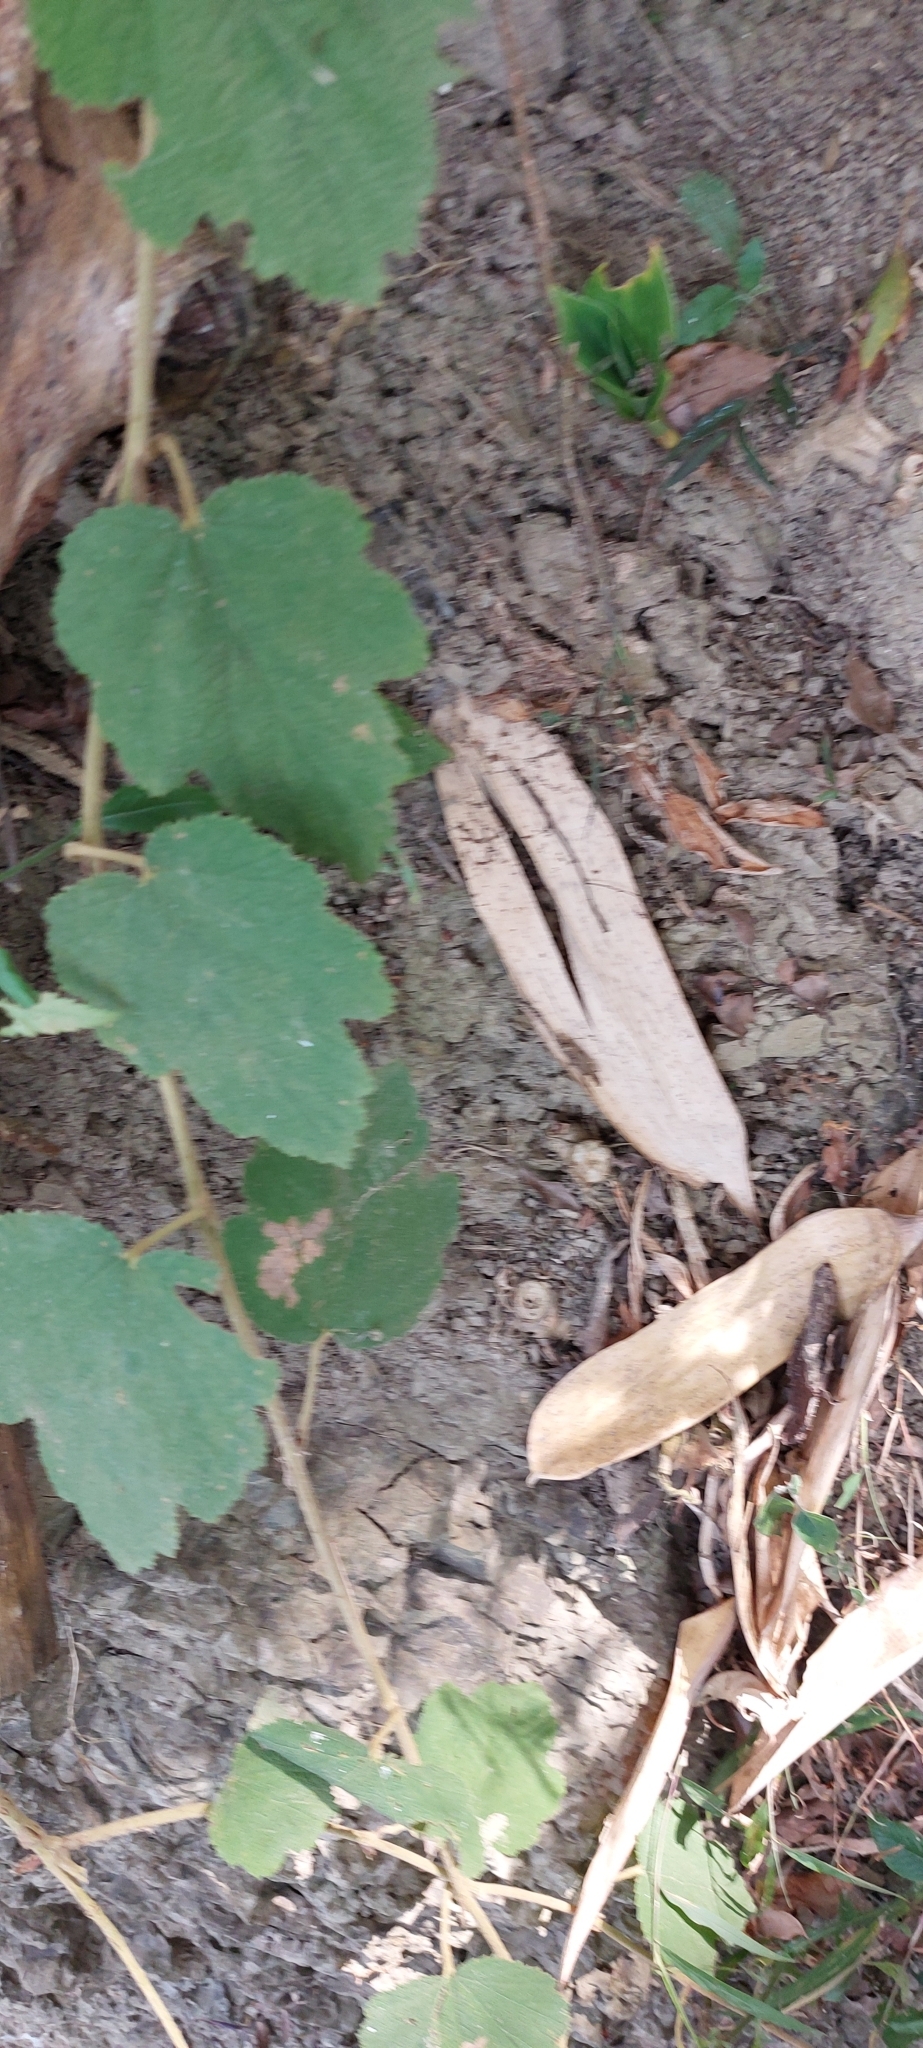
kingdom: Plantae
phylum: Tracheophyta
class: Magnoliopsida
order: Rosales
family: Rosaceae
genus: Rubus
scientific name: Rubus formosensis
